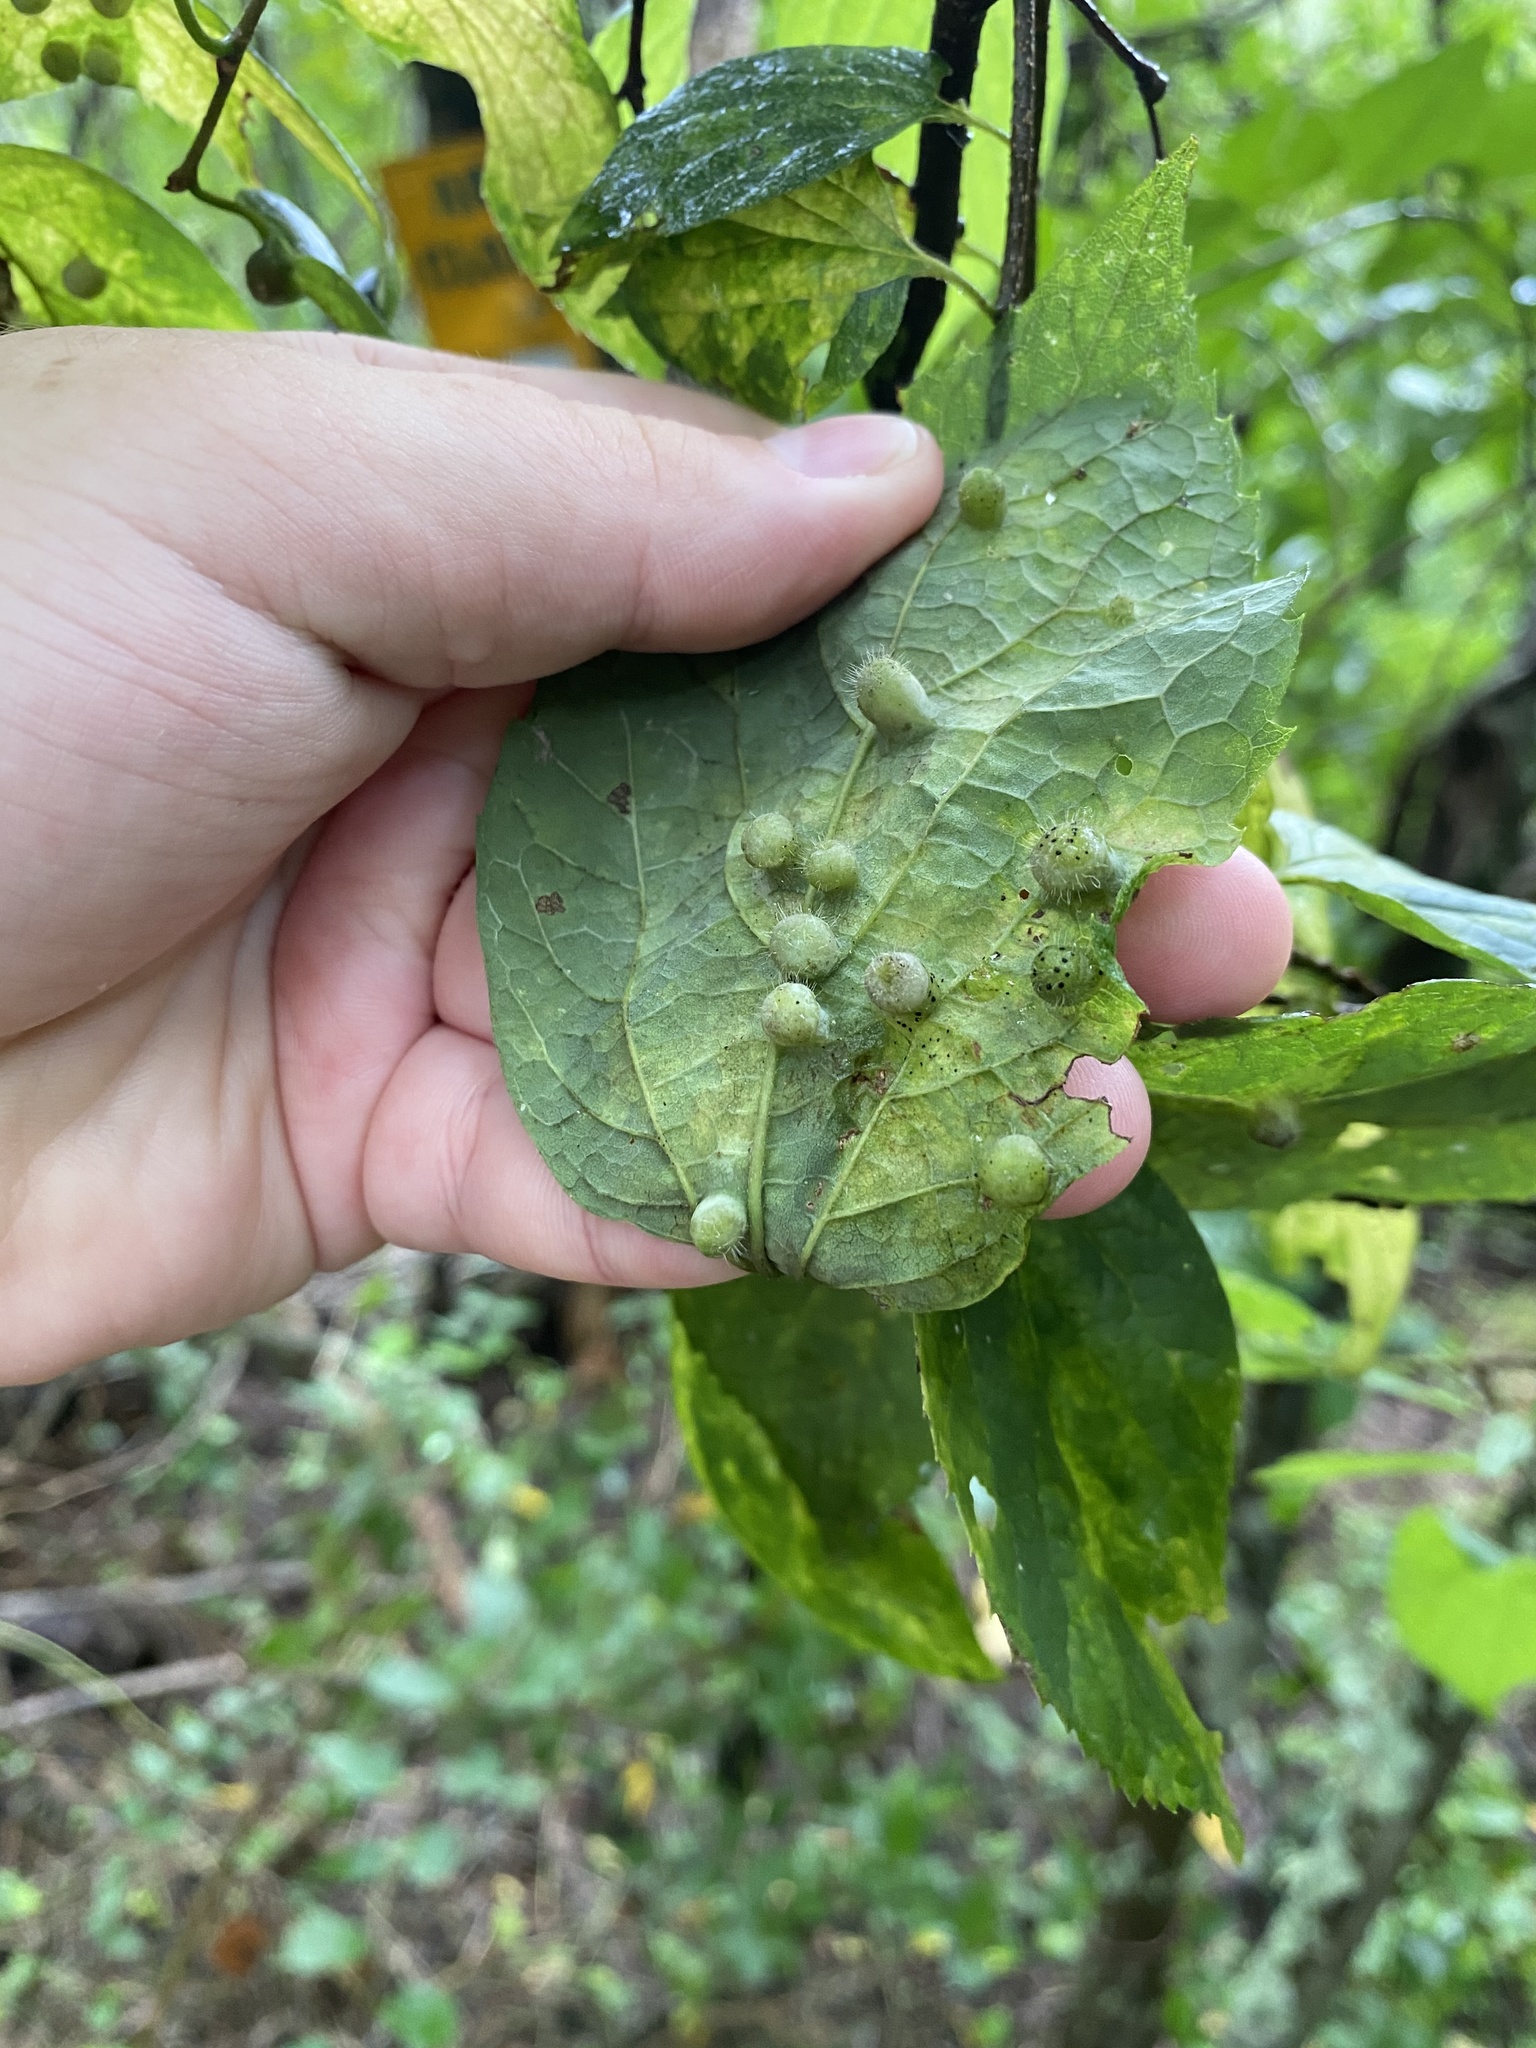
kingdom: Animalia
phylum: Arthropoda
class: Insecta
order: Hemiptera
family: Aphalaridae
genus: Pachypsylla
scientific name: Pachypsylla celtidismamma
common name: Hackberry nipplegall psyllid
